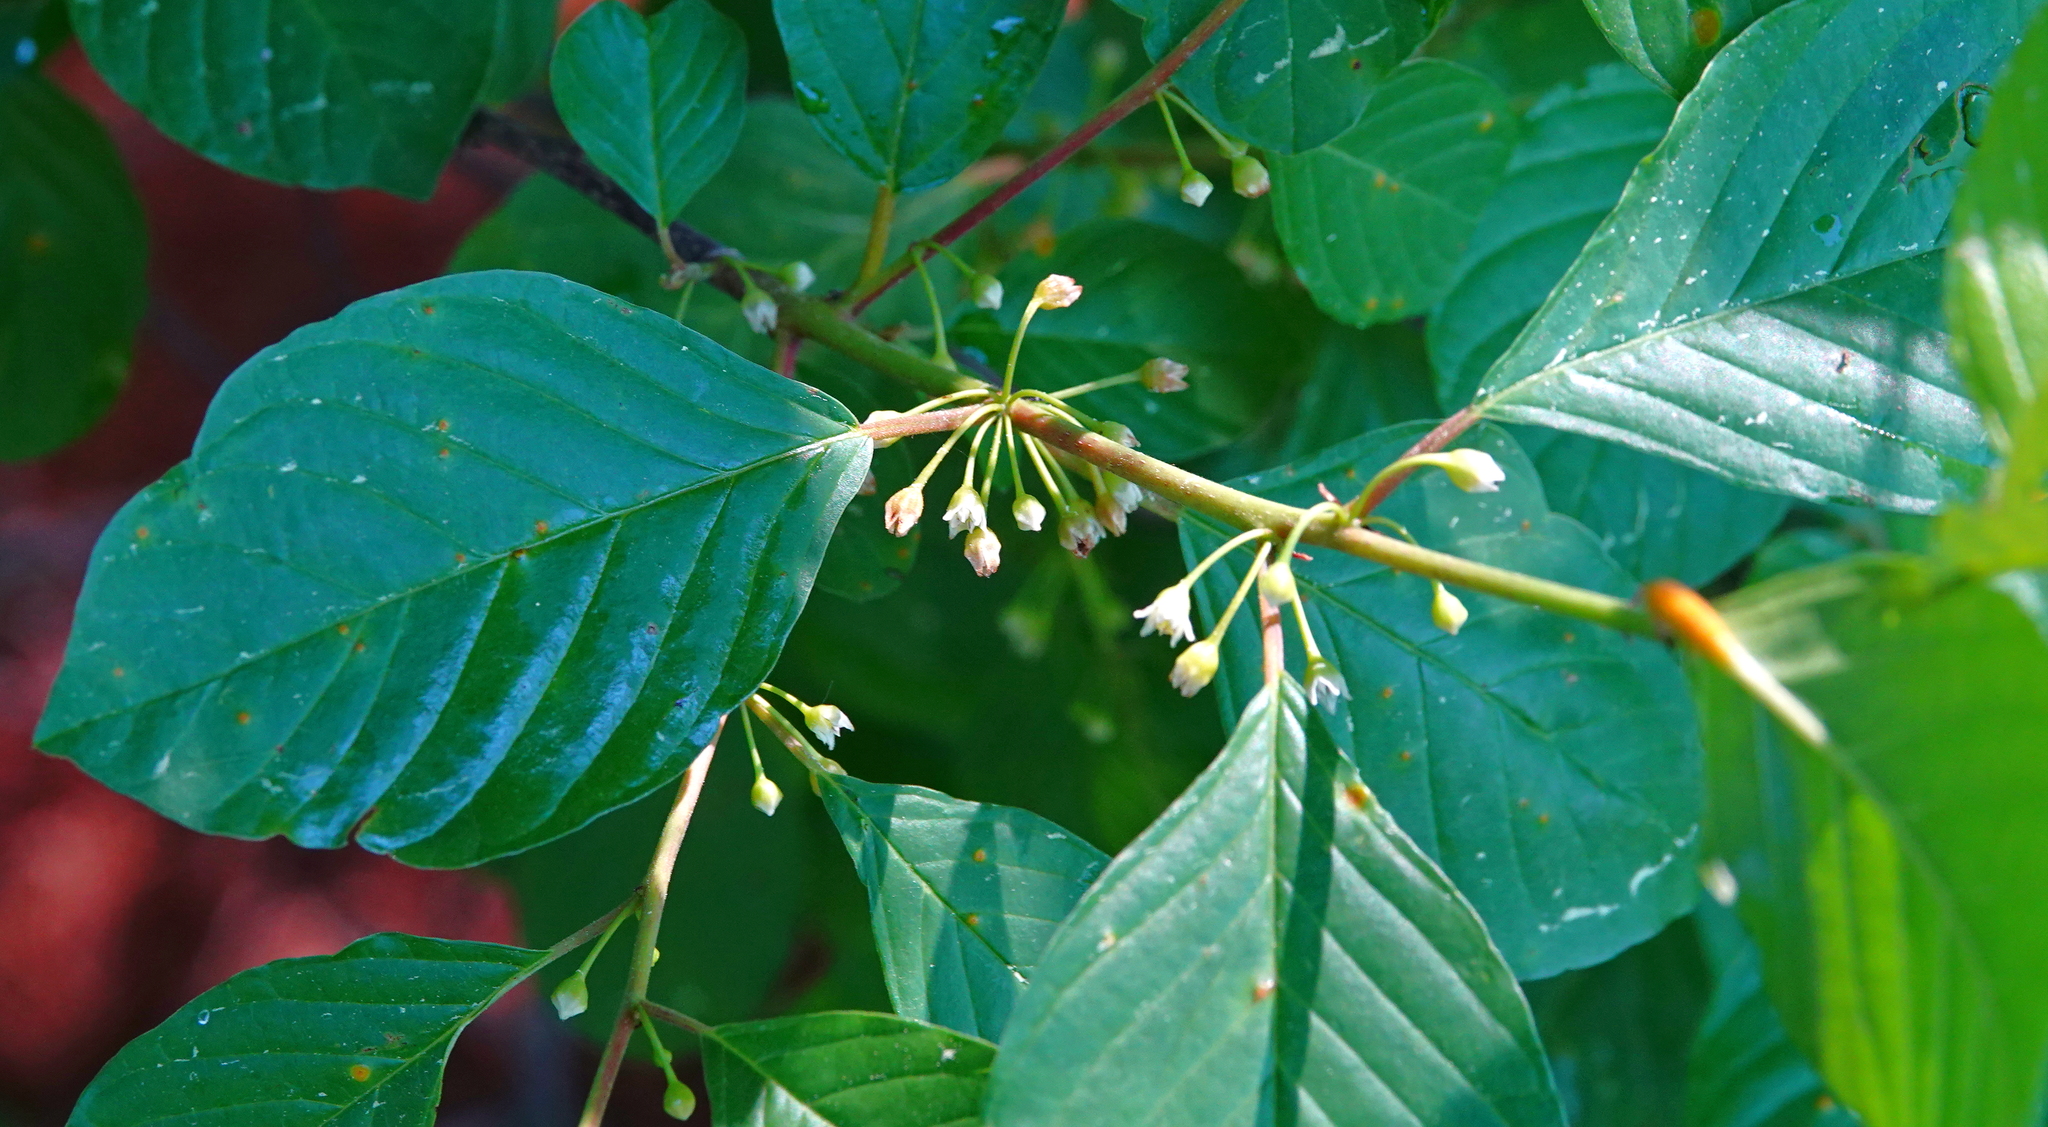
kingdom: Plantae
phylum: Tracheophyta
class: Magnoliopsida
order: Rosales
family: Rhamnaceae
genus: Frangula
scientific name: Frangula alnus
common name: Alder buckthorn
